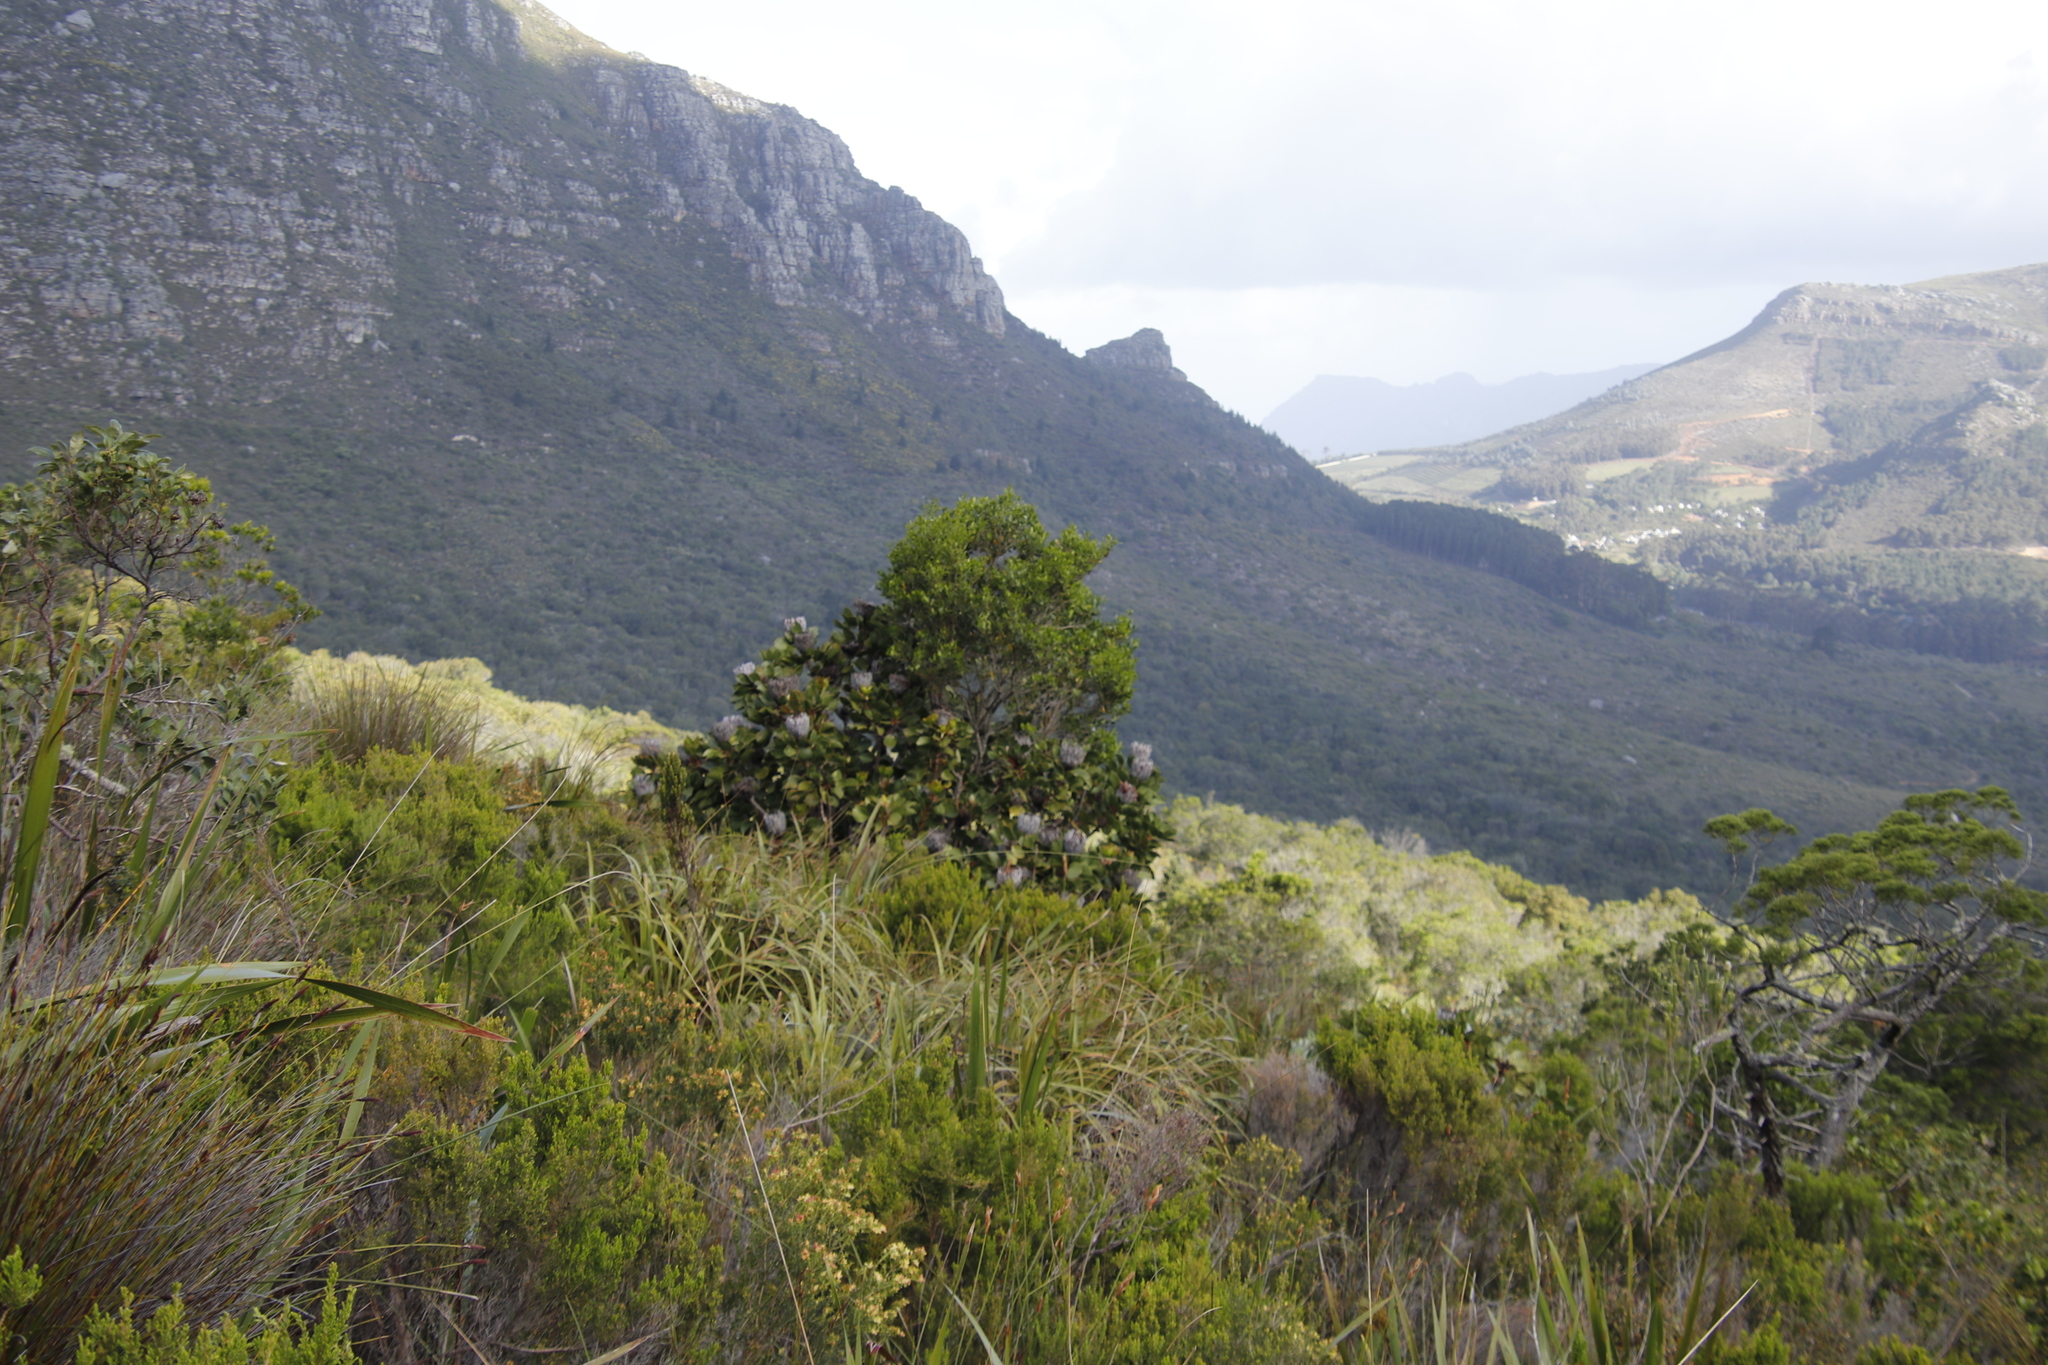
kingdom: Plantae
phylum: Tracheophyta
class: Magnoliopsida
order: Proteales
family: Proteaceae
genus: Protea
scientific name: Protea cynaroides
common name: King protea
